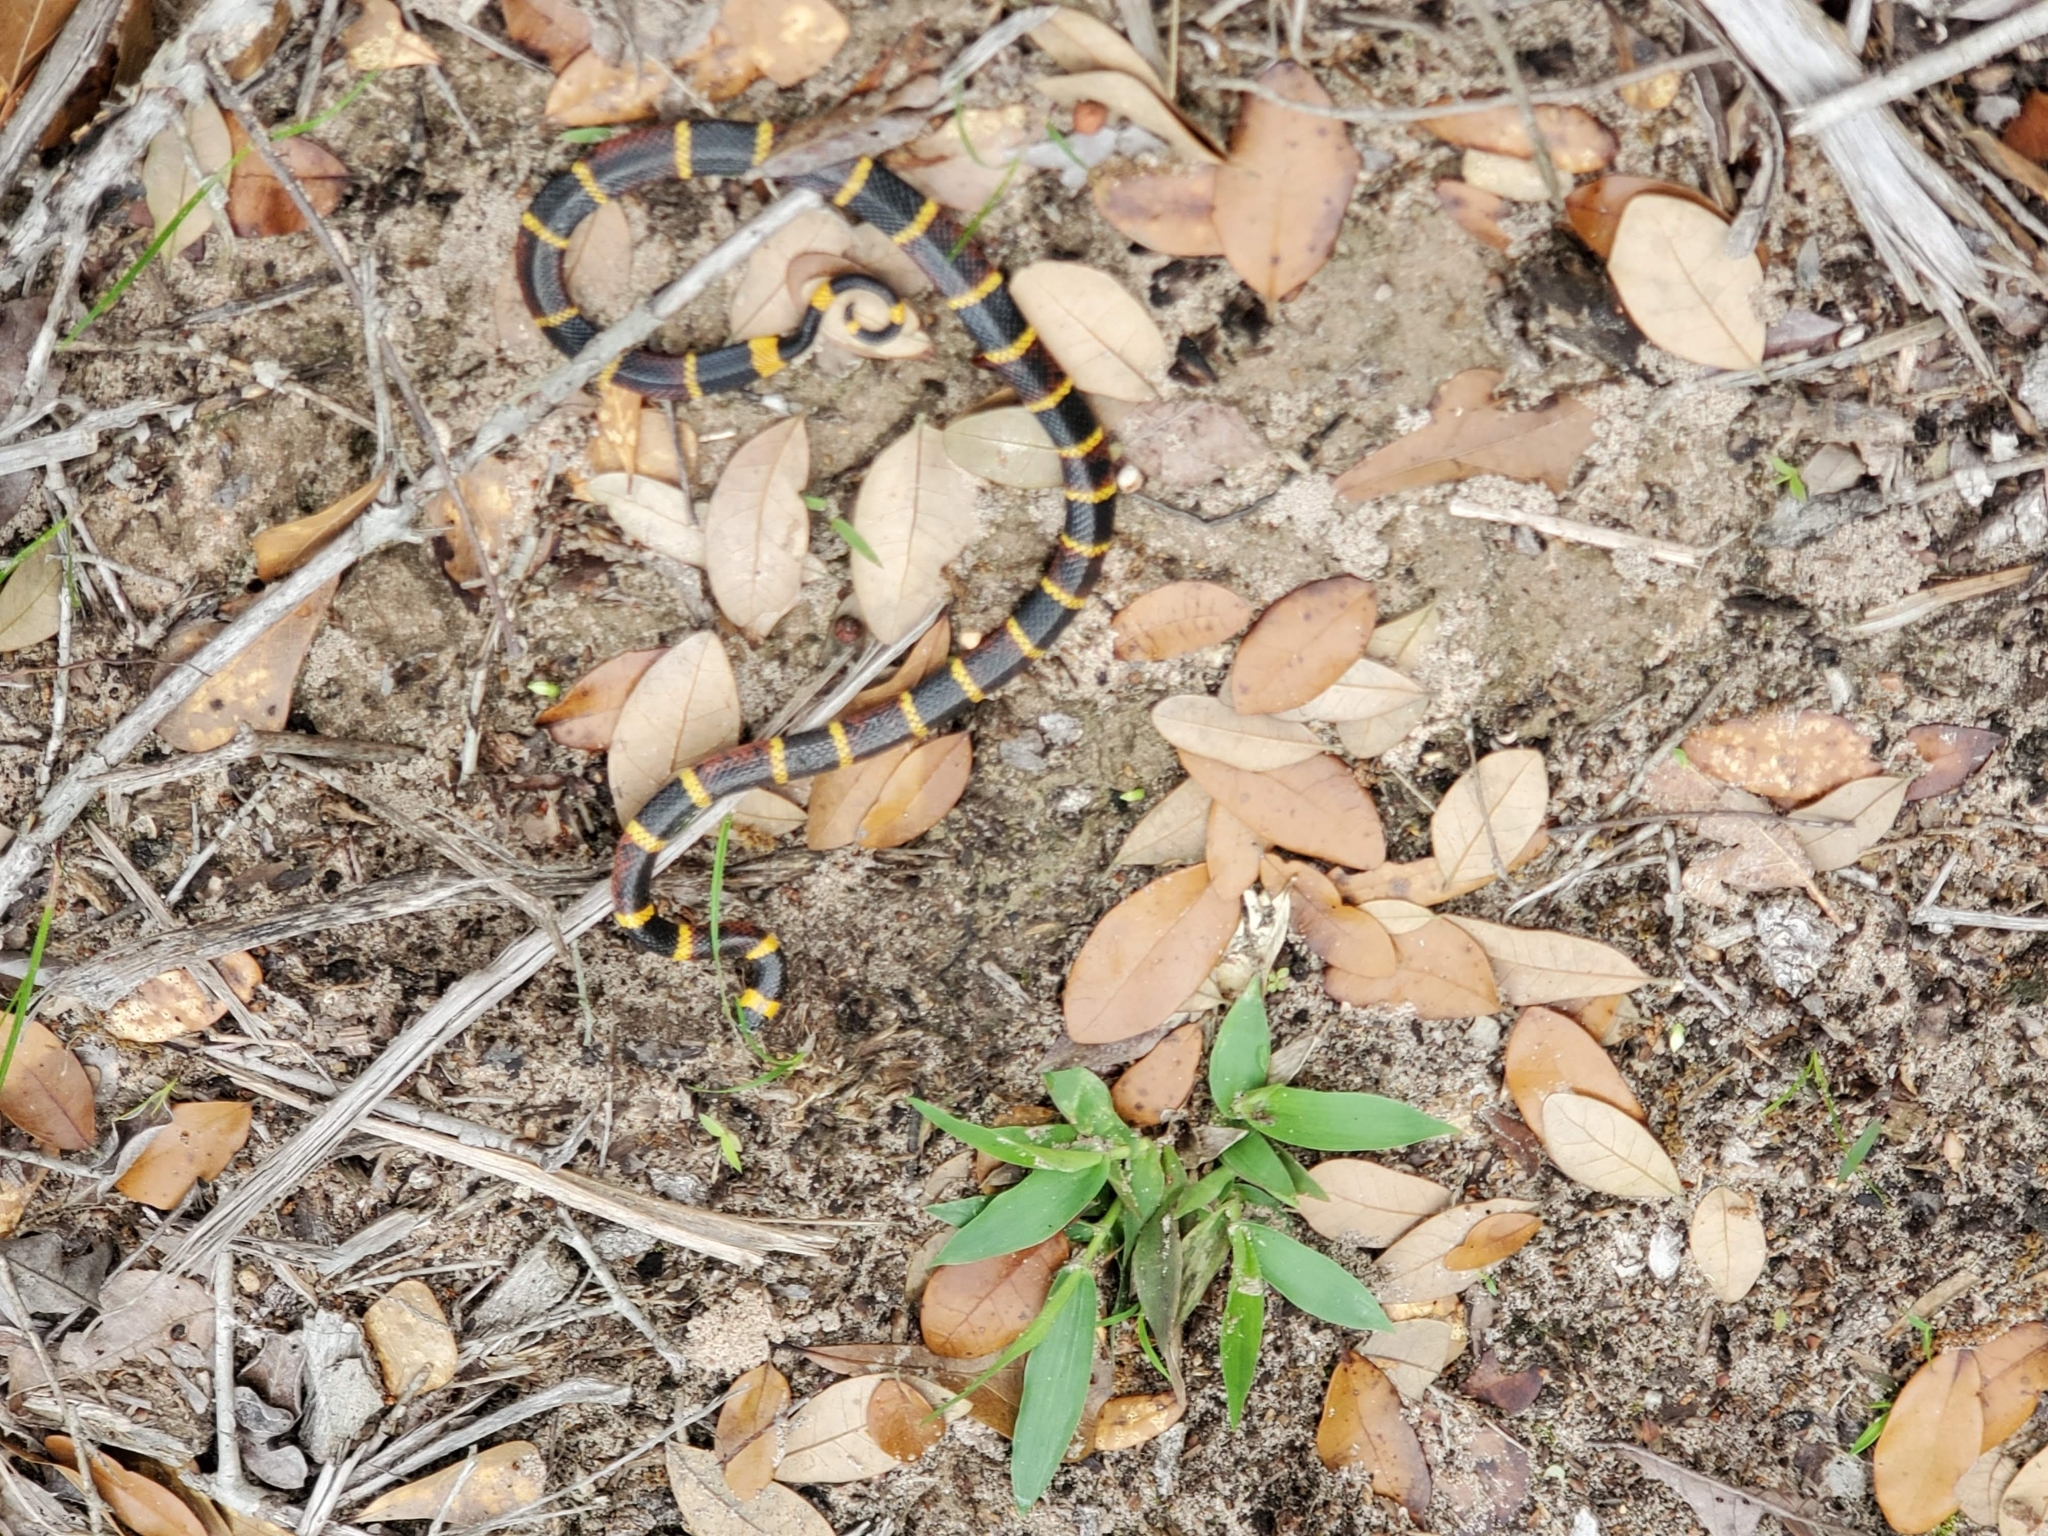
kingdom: Animalia
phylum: Chordata
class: Squamata
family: Elapidae
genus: Micrurus
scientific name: Micrurus tener
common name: Texas coral snake
